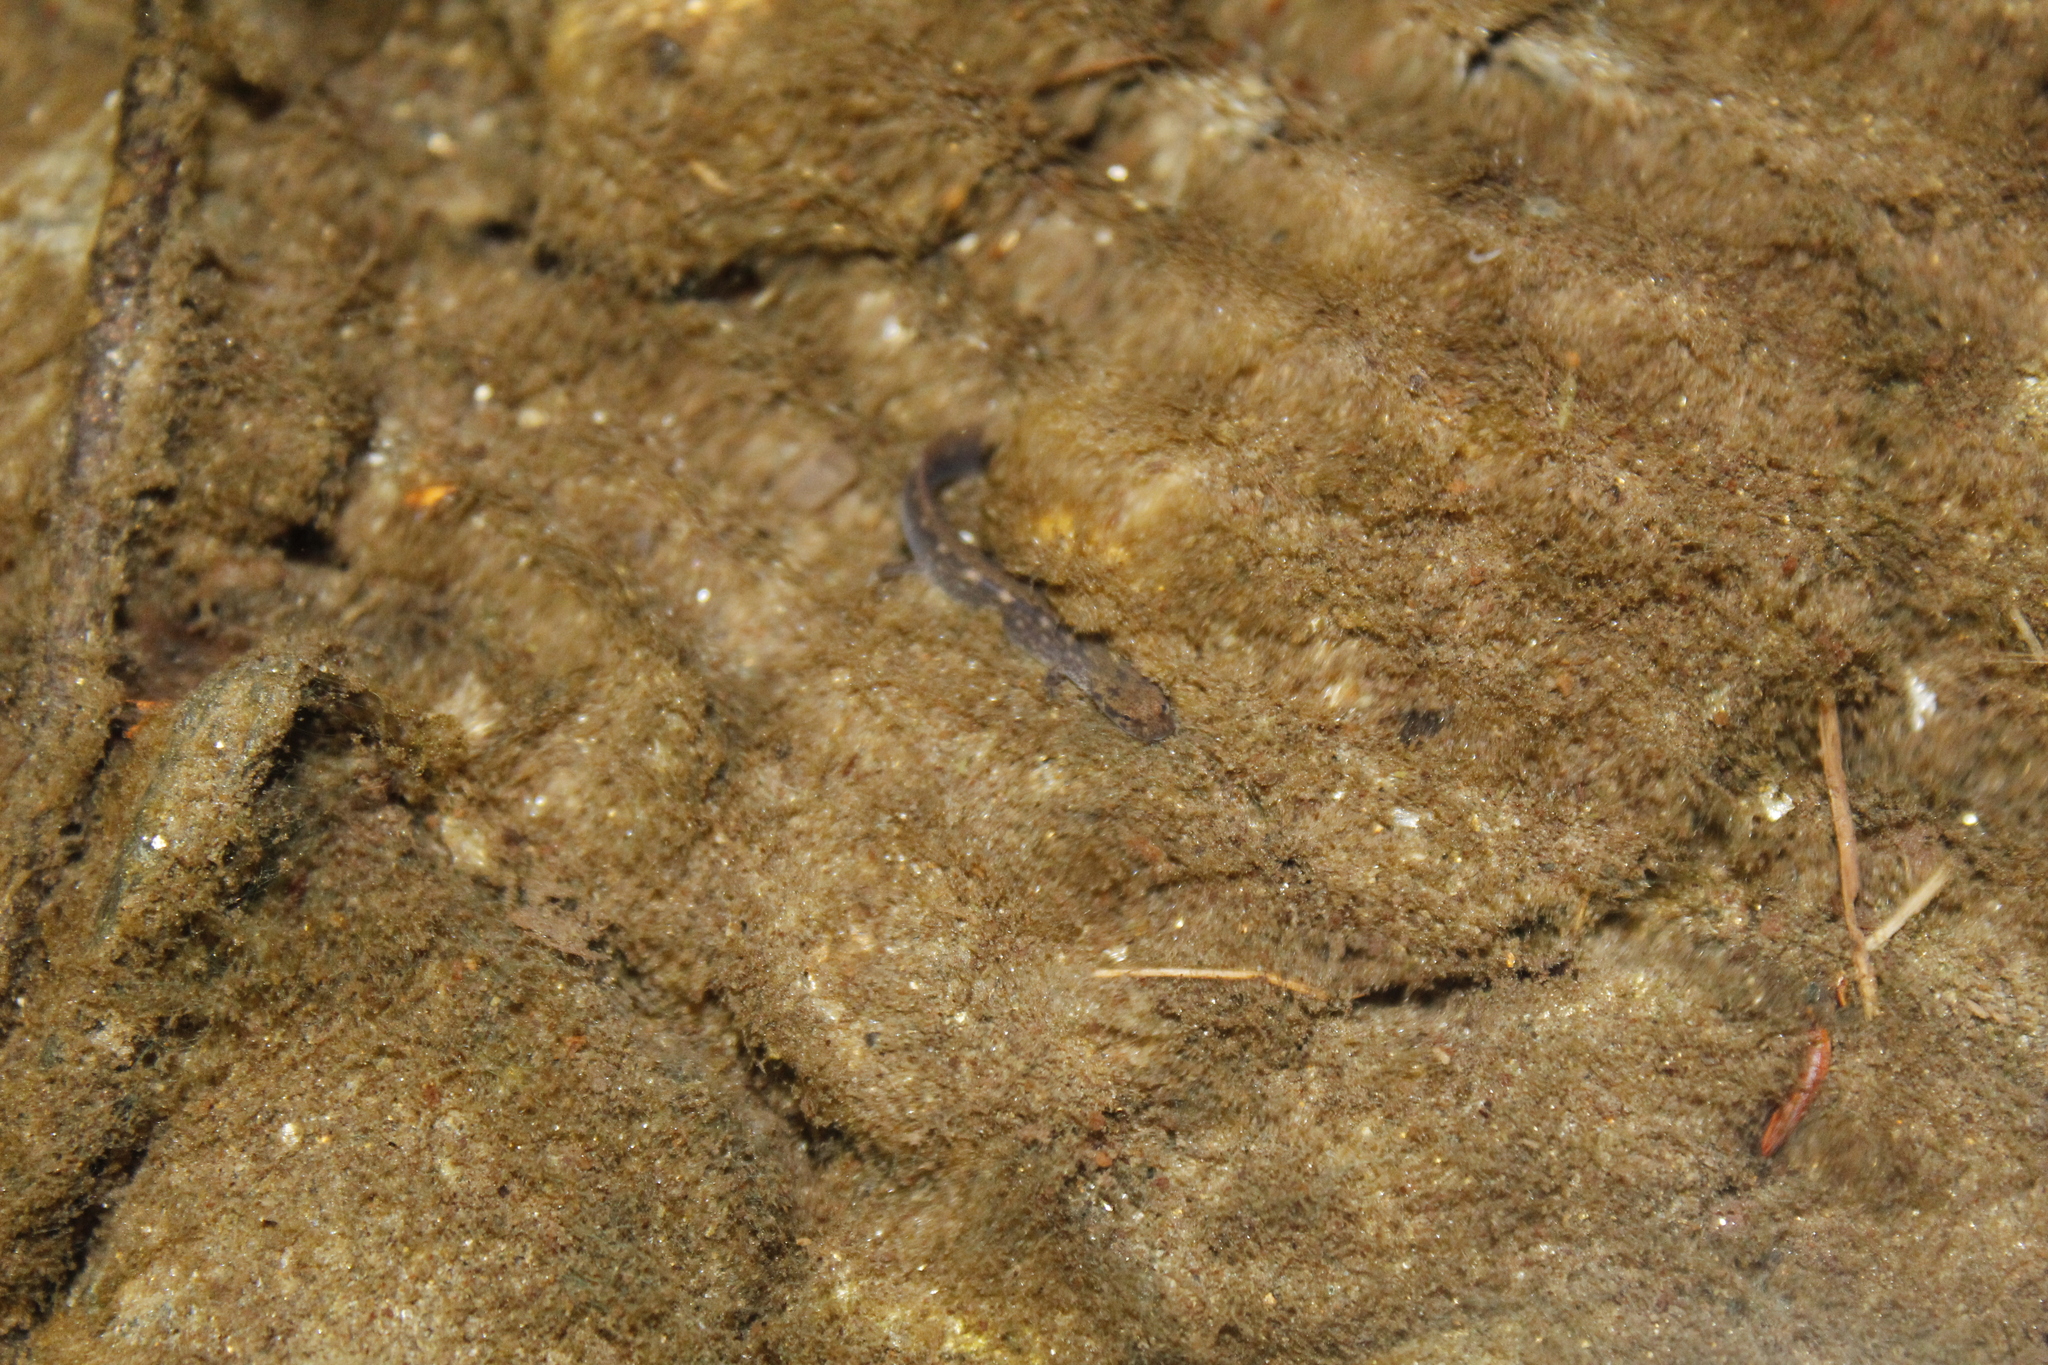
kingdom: Animalia
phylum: Chordata
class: Amphibia
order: Caudata
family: Plethodontidae
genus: Eurycea
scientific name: Eurycea bislineata
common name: Northern two-lined salamander
